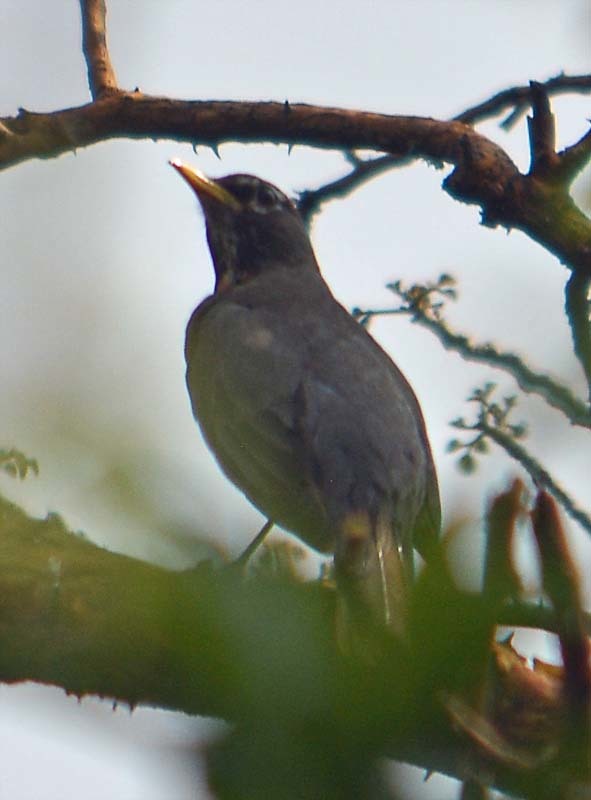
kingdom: Animalia
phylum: Chordata
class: Aves
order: Passeriformes
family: Turdidae
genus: Turdus
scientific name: Turdus migratorius
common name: American robin
